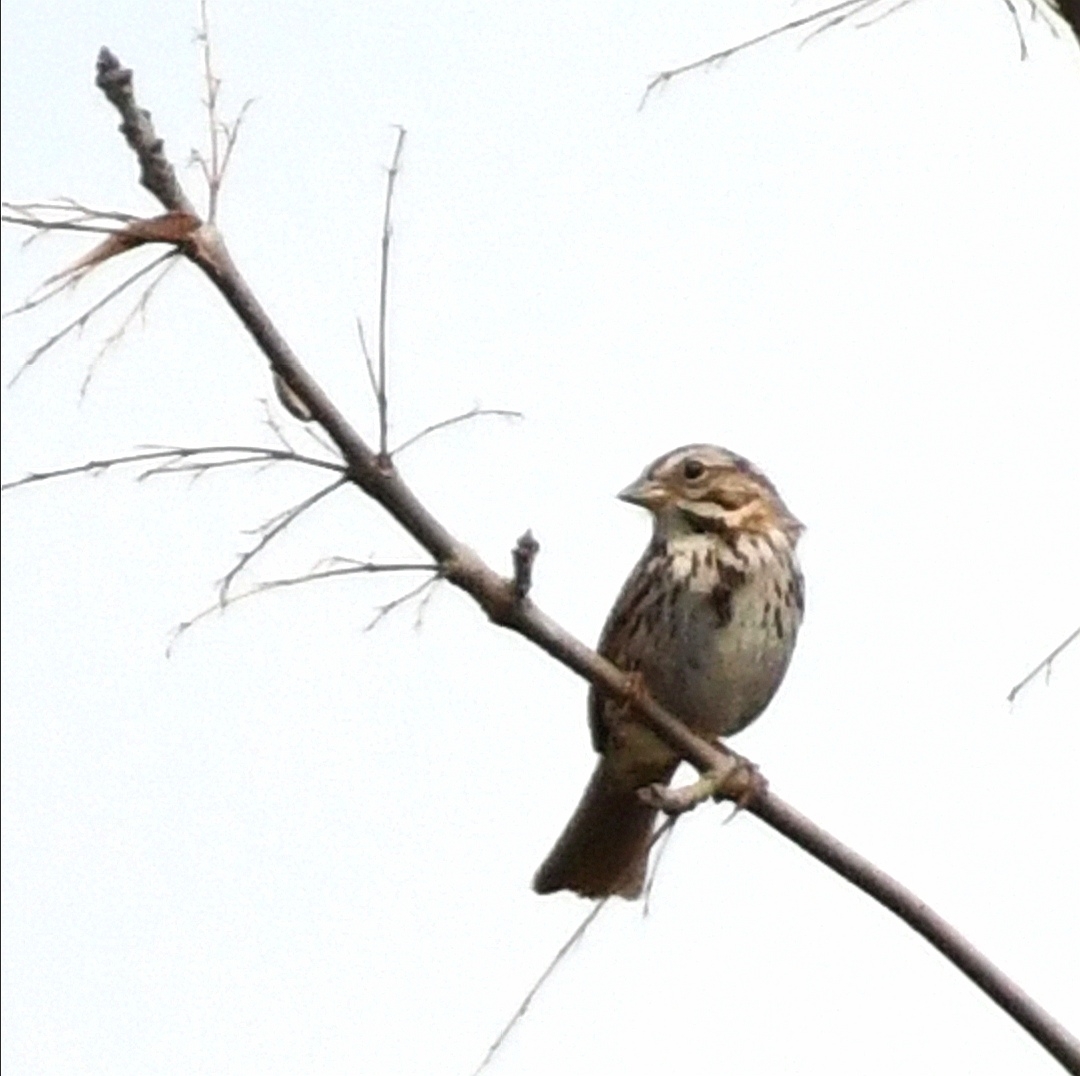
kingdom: Animalia
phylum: Chordata
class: Aves
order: Passeriformes
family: Passerellidae
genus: Melospiza
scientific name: Melospiza melodia
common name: Song sparrow
